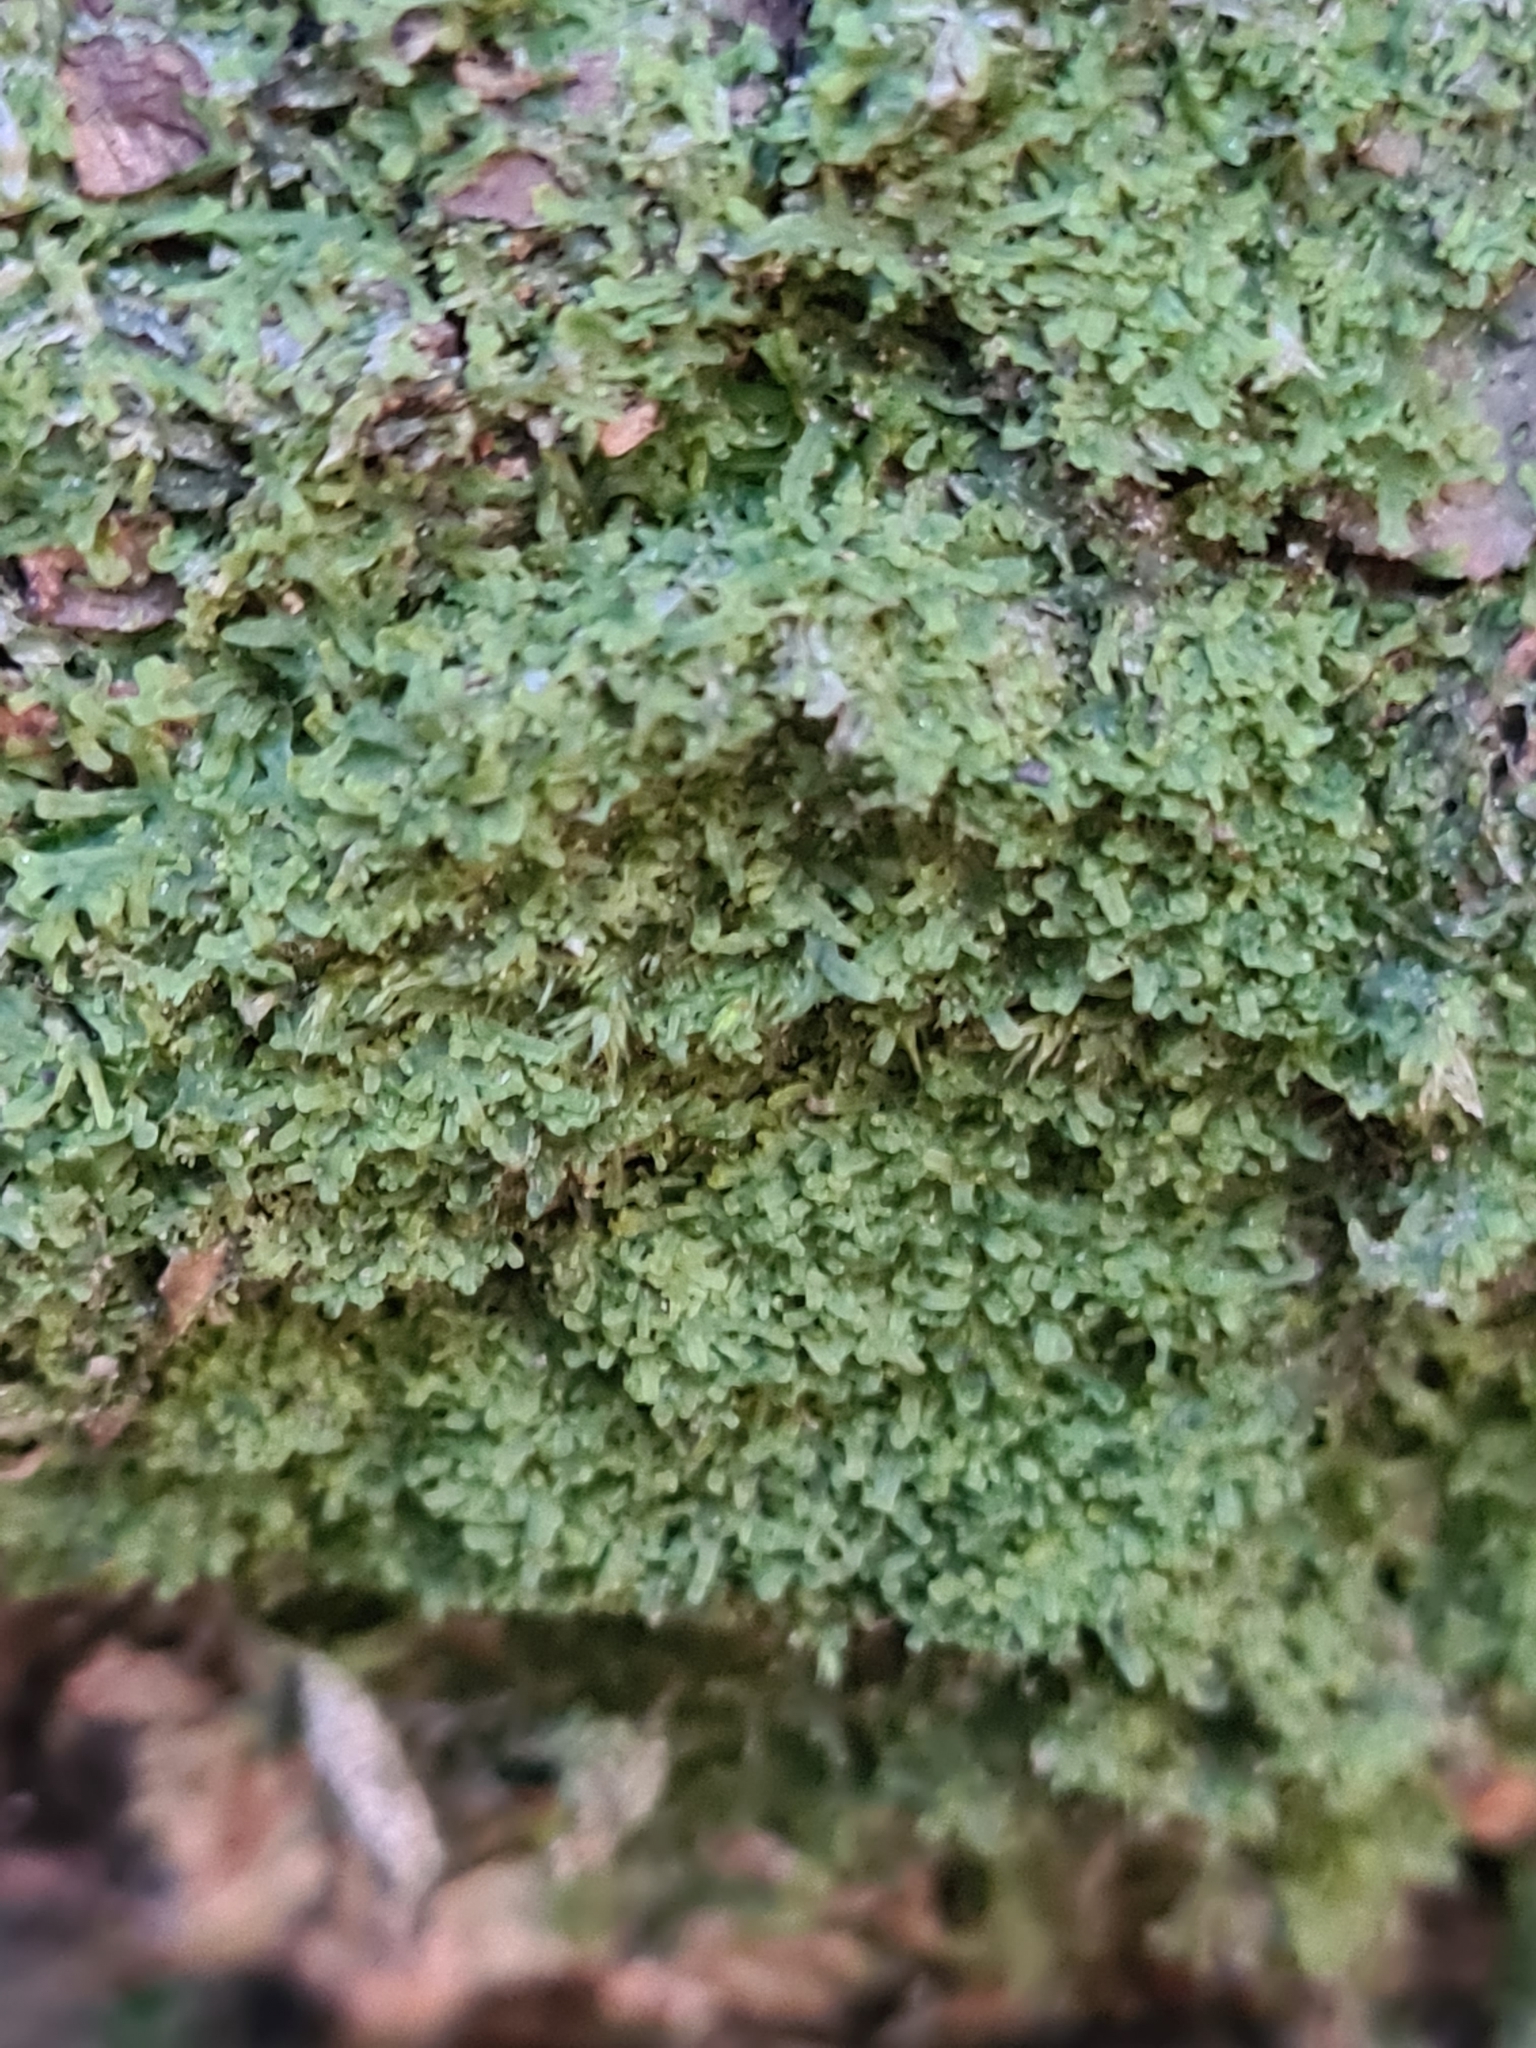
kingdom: Plantae
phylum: Marchantiophyta
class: Jungermanniopsida
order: Metzgeriales
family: Metzgeriaceae
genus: Metzgeria
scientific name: Metzgeria furcata
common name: Forked veilwort
